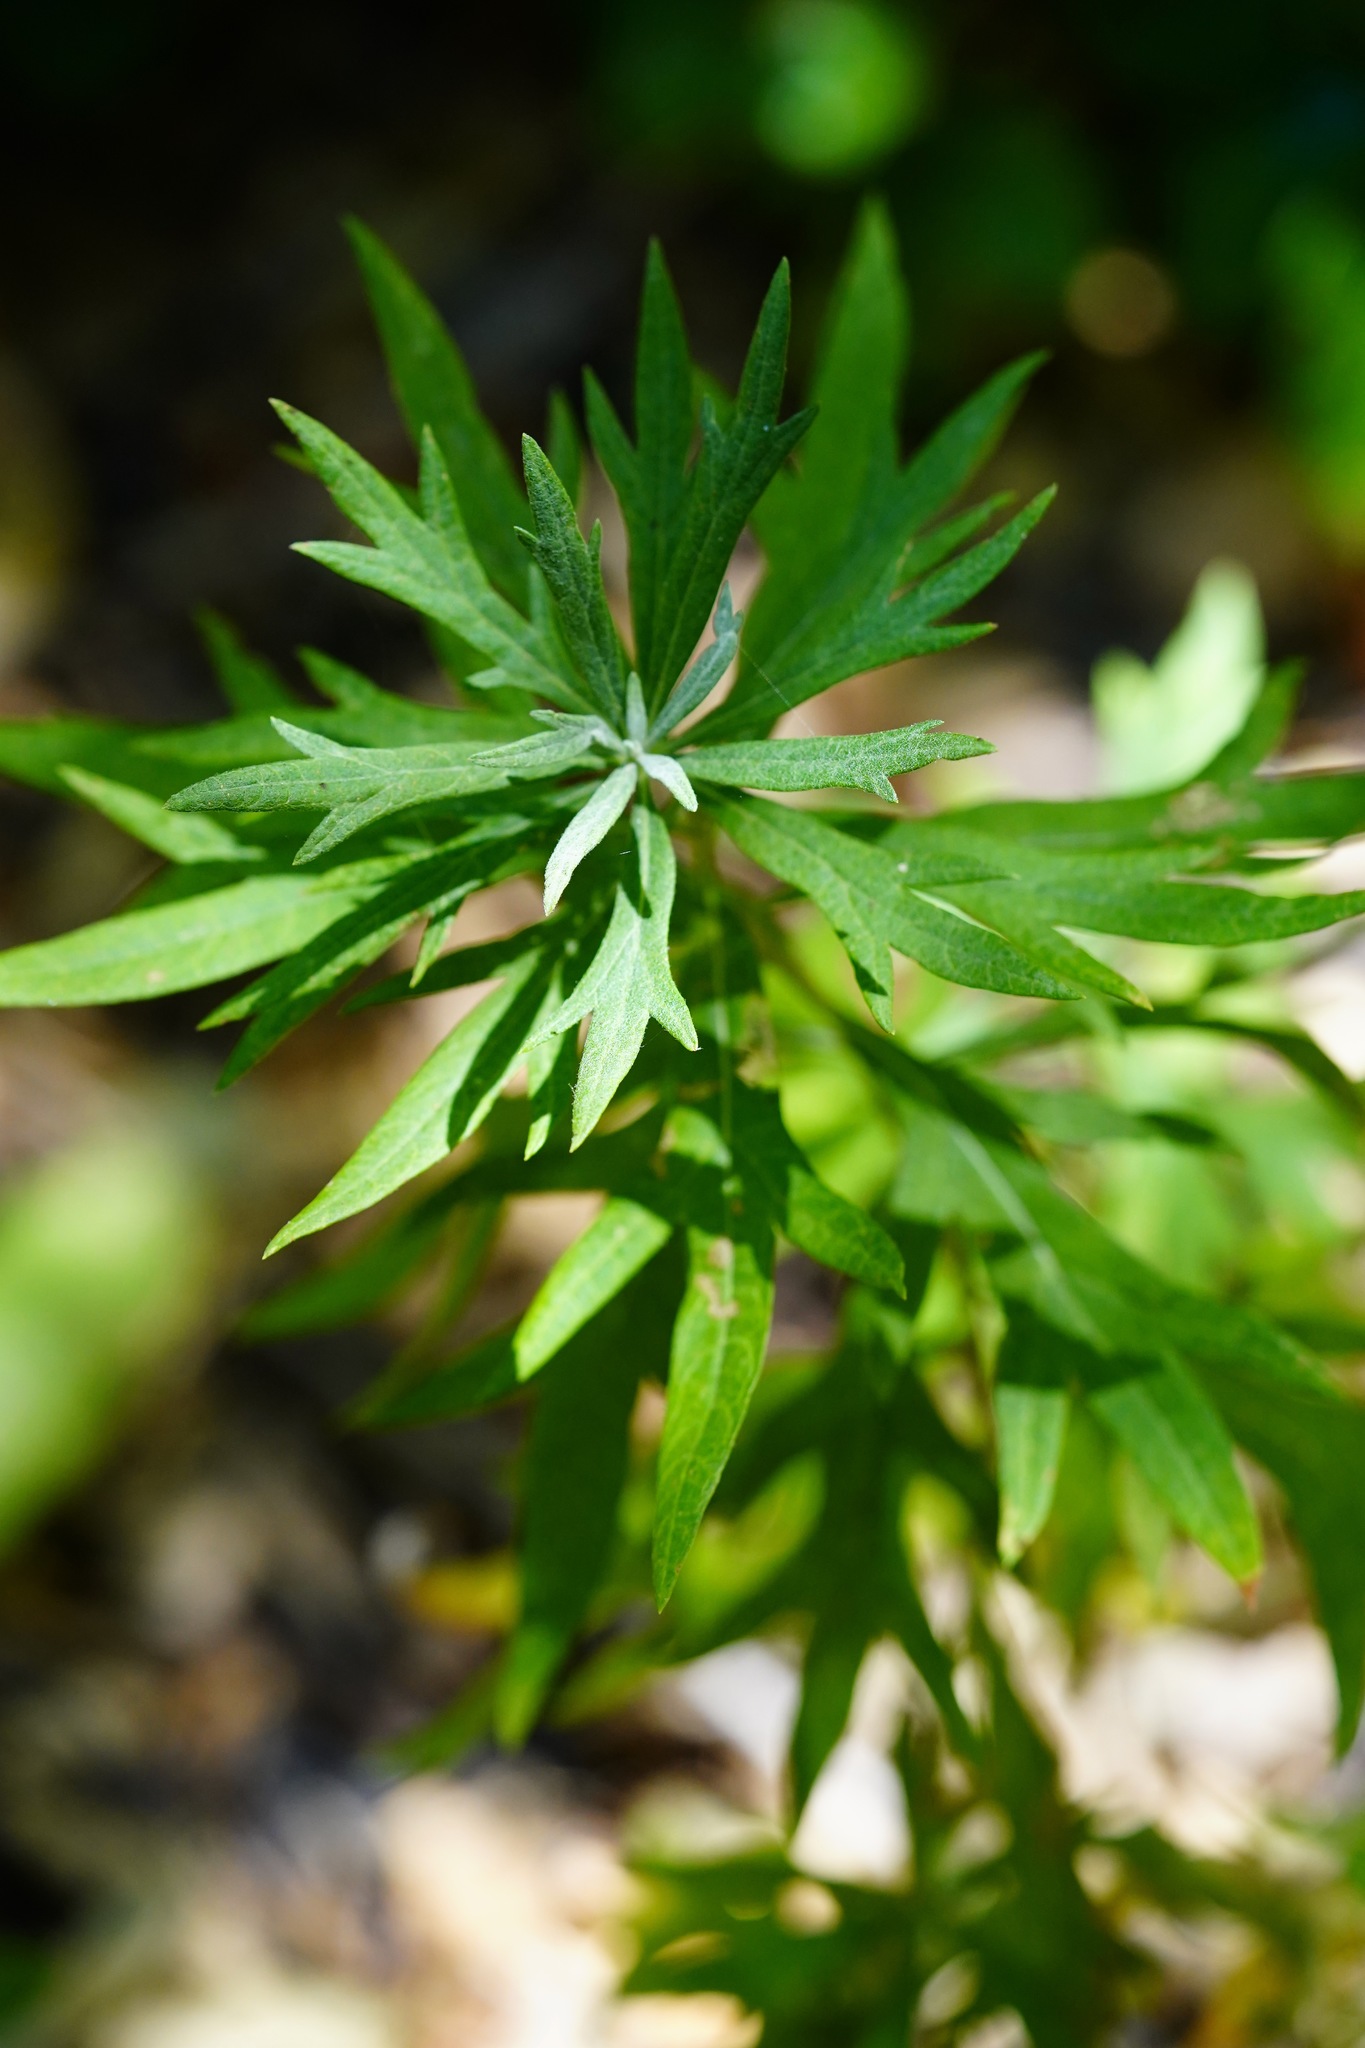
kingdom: Plantae
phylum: Tracheophyta
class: Magnoliopsida
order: Asterales
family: Asteraceae
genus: Artemisia
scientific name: Artemisia douglasiana
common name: Northwest mugwort
